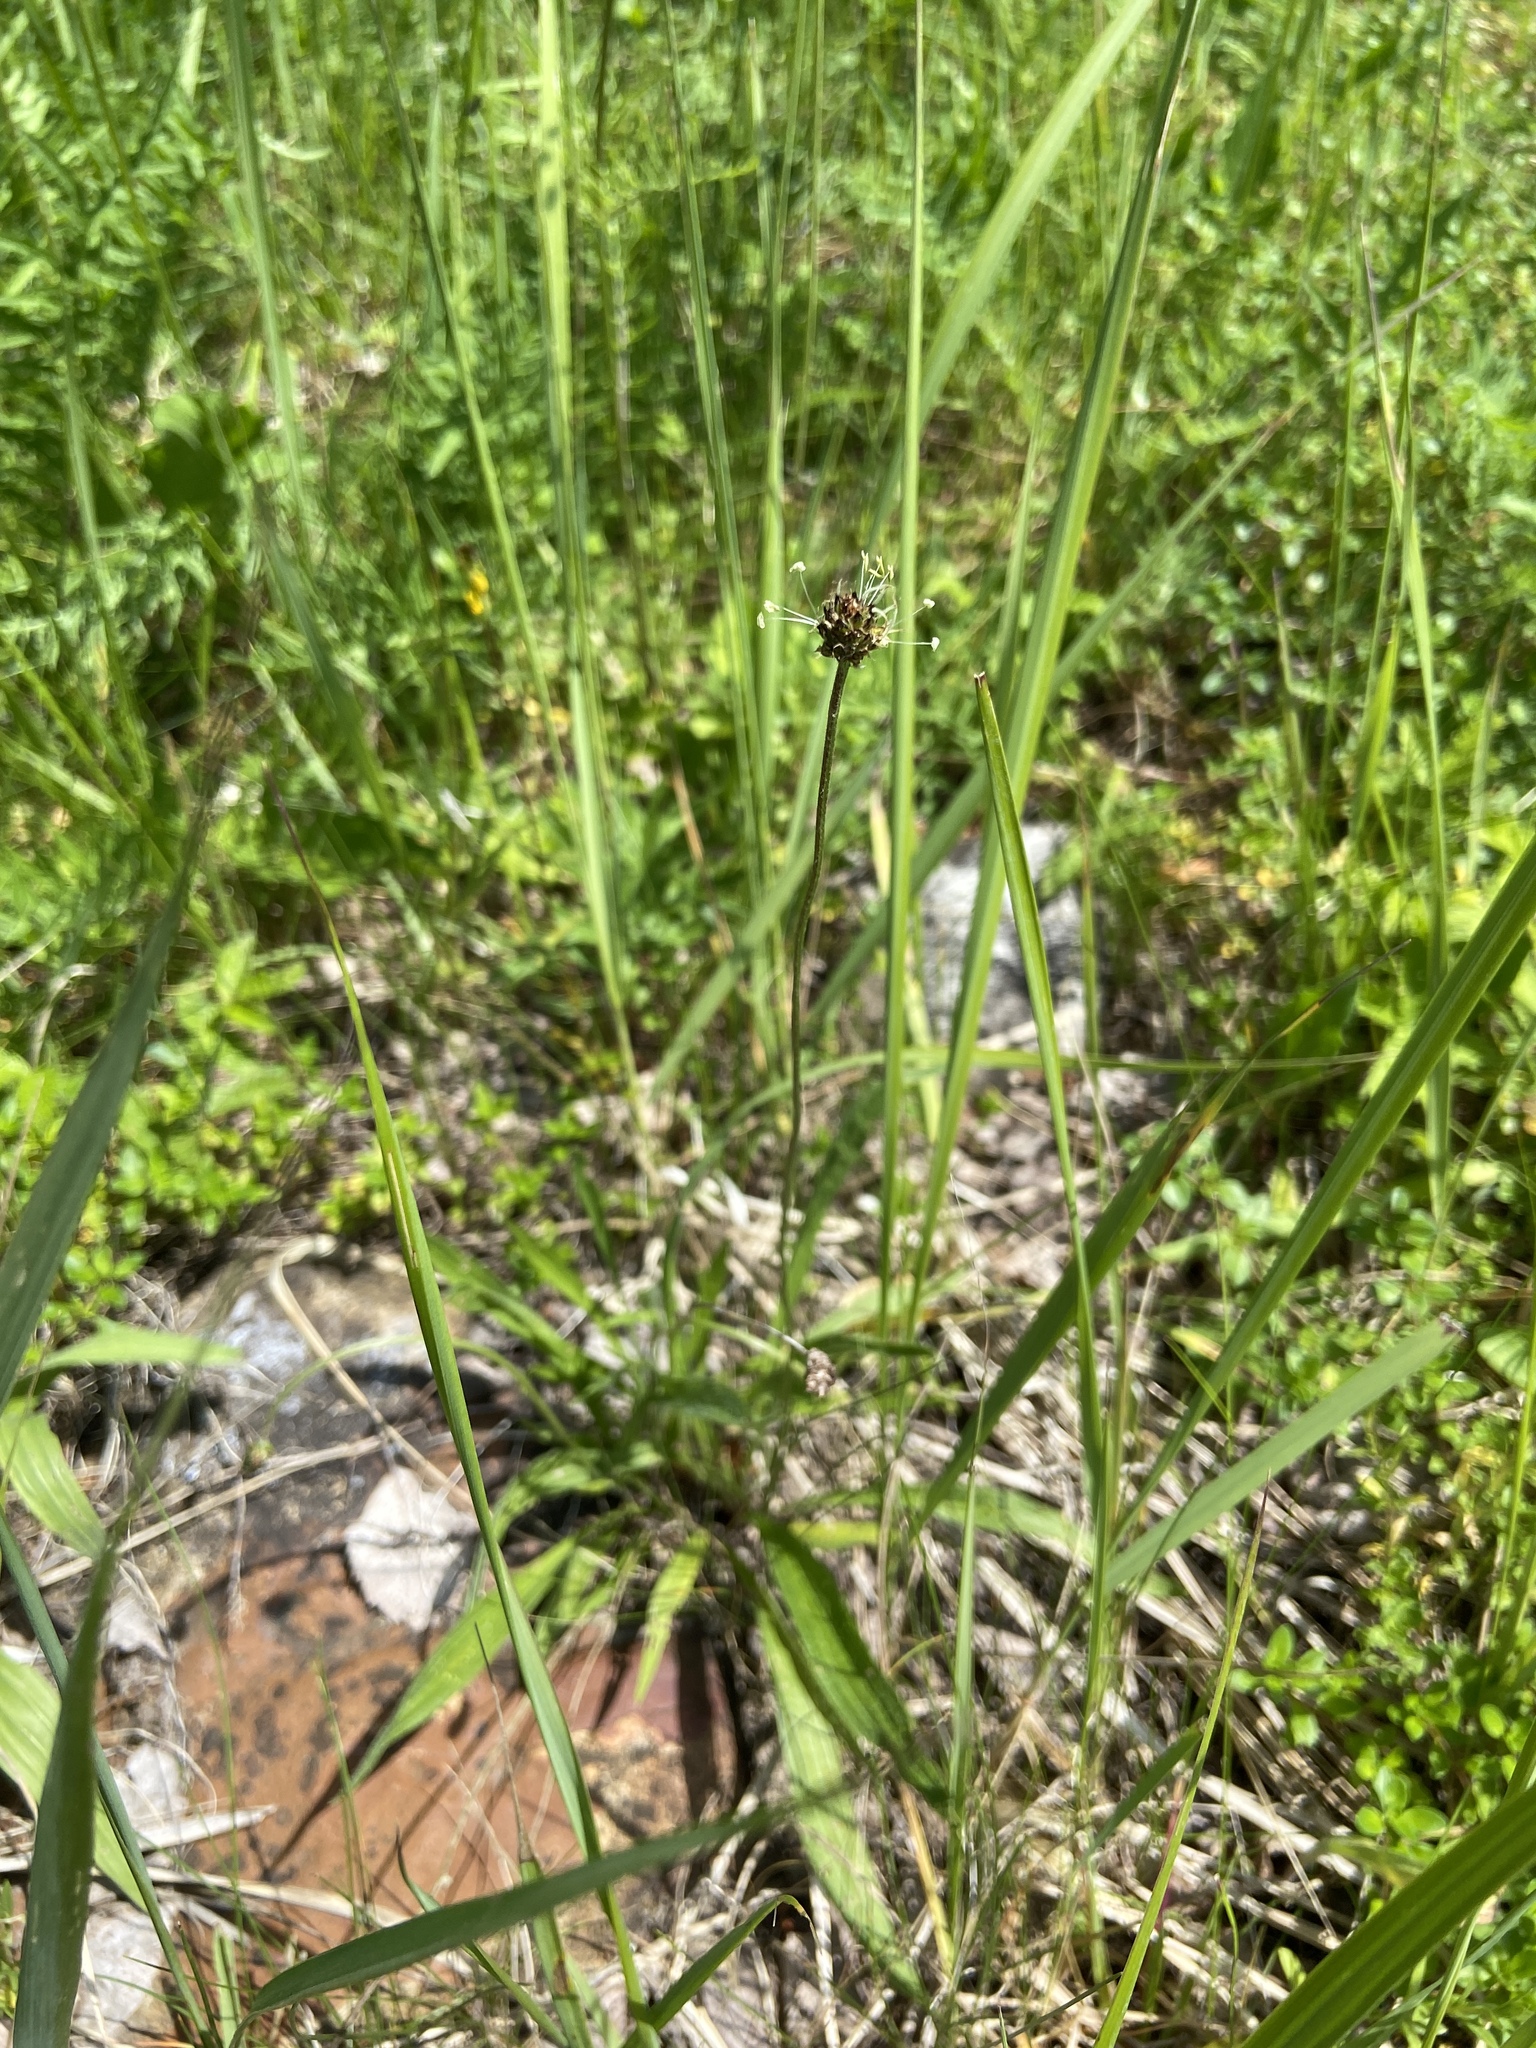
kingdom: Plantae
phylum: Tracheophyta
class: Magnoliopsida
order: Lamiales
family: Plantaginaceae
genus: Plantago
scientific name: Plantago lanceolata
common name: Ribwort plantain
